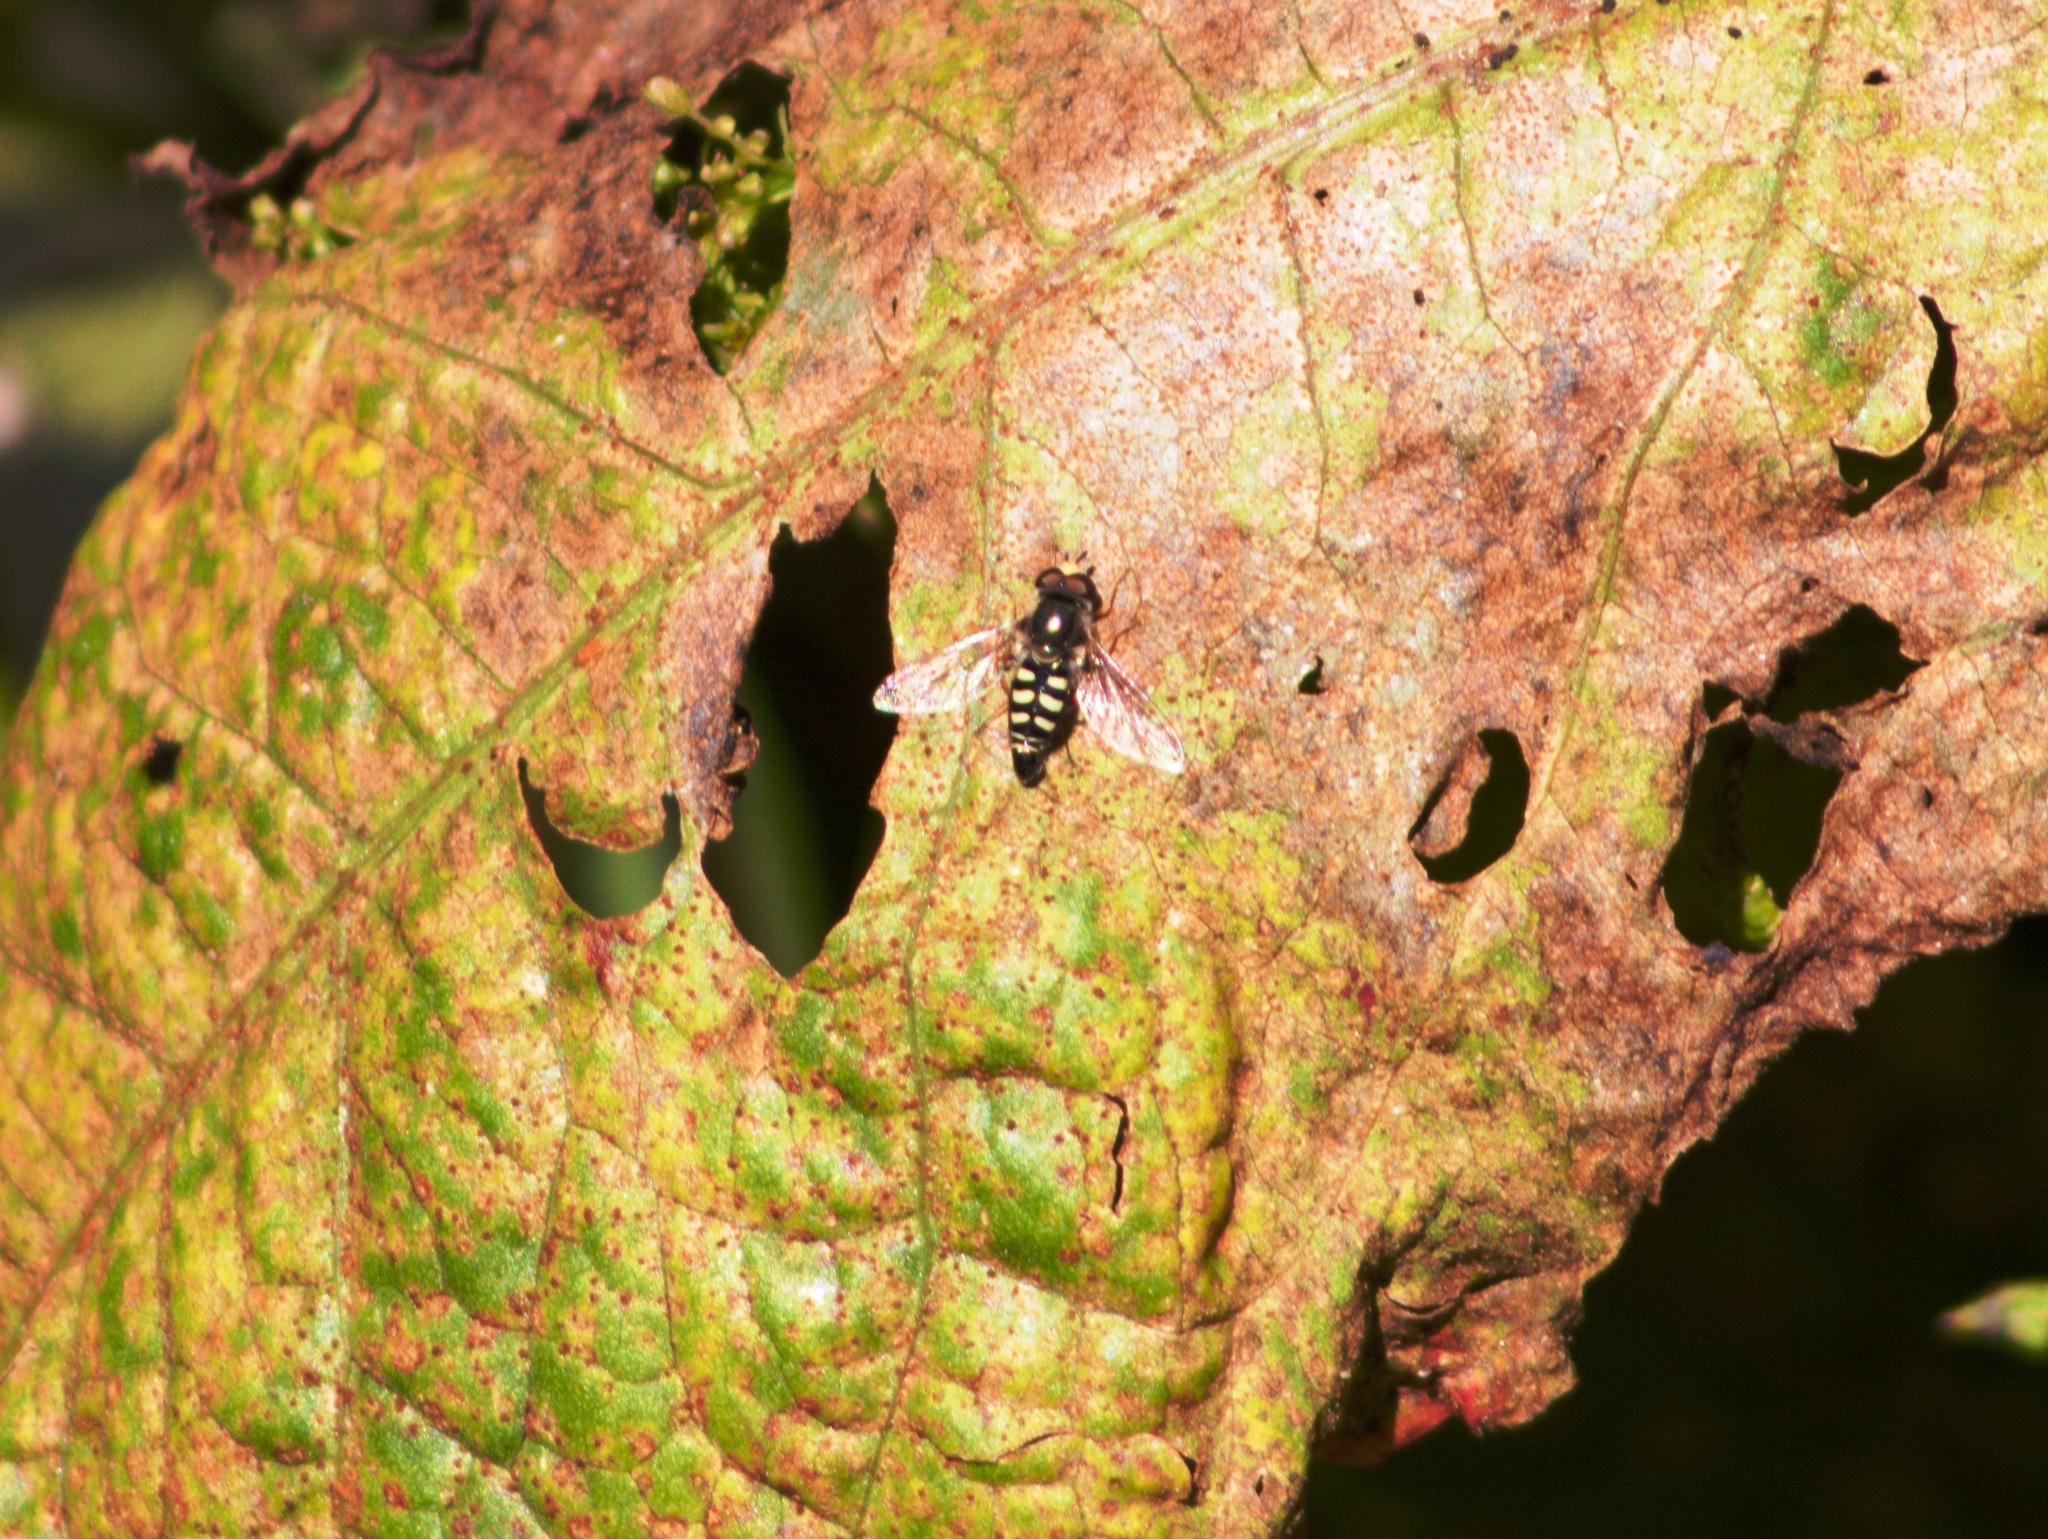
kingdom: Animalia
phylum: Arthropoda
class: Insecta
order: Diptera
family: Syrphidae
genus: Eupeodes
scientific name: Eupeodes volucris
